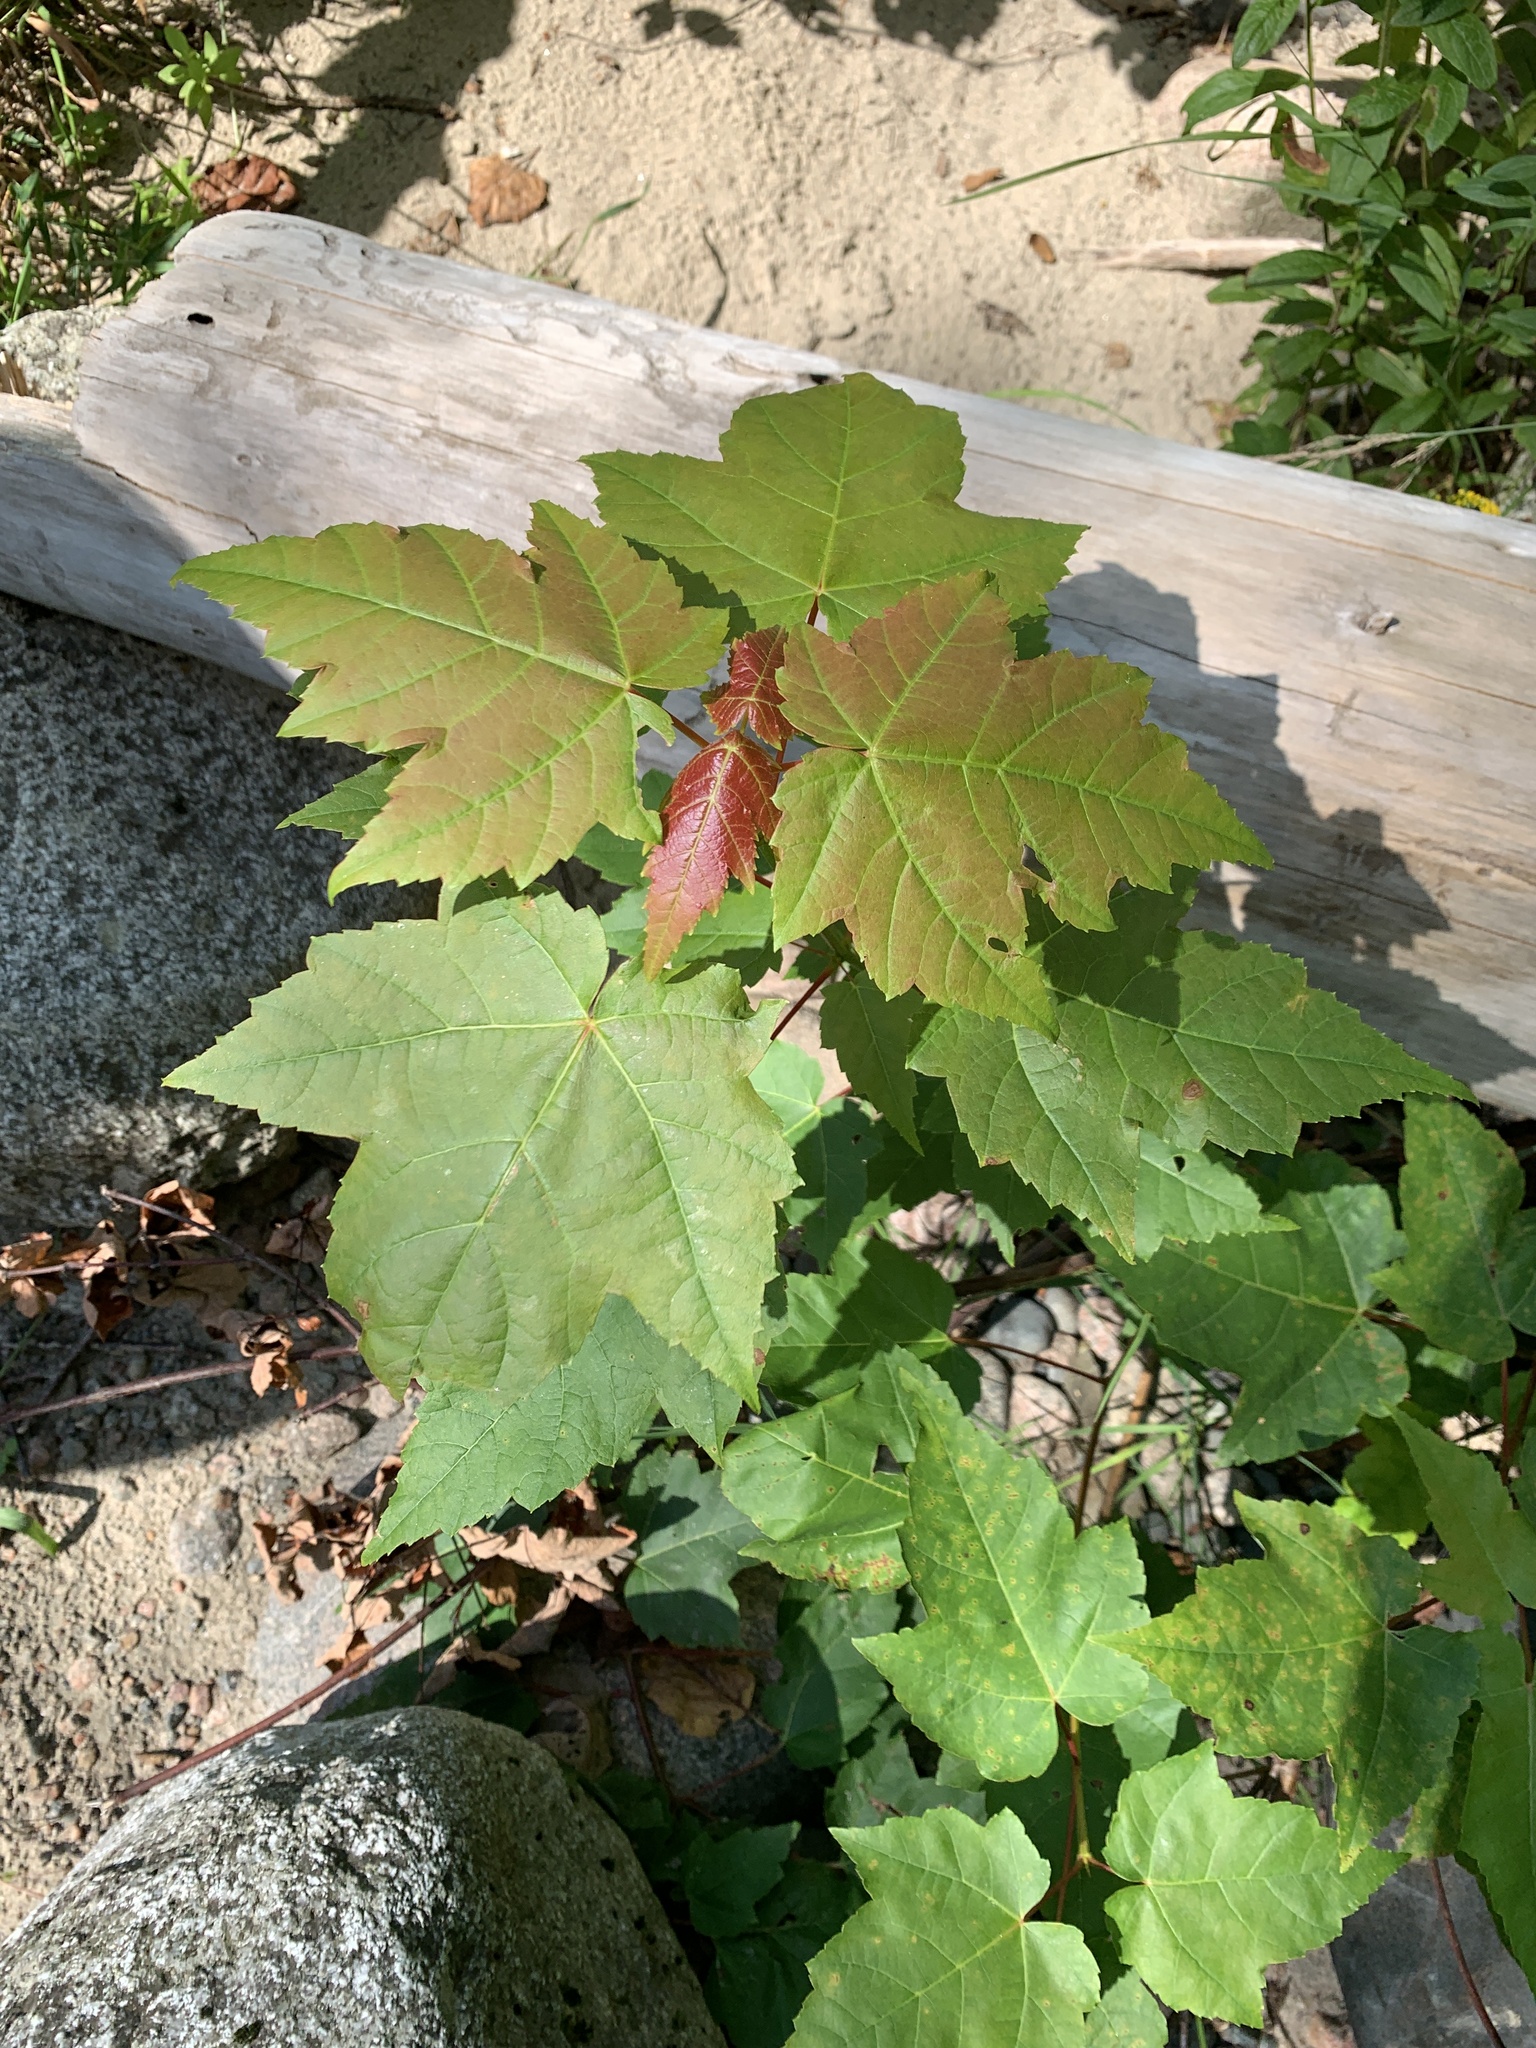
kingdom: Plantae
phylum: Tracheophyta
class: Magnoliopsida
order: Sapindales
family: Sapindaceae
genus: Acer
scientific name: Acer rubrum
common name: Red maple
